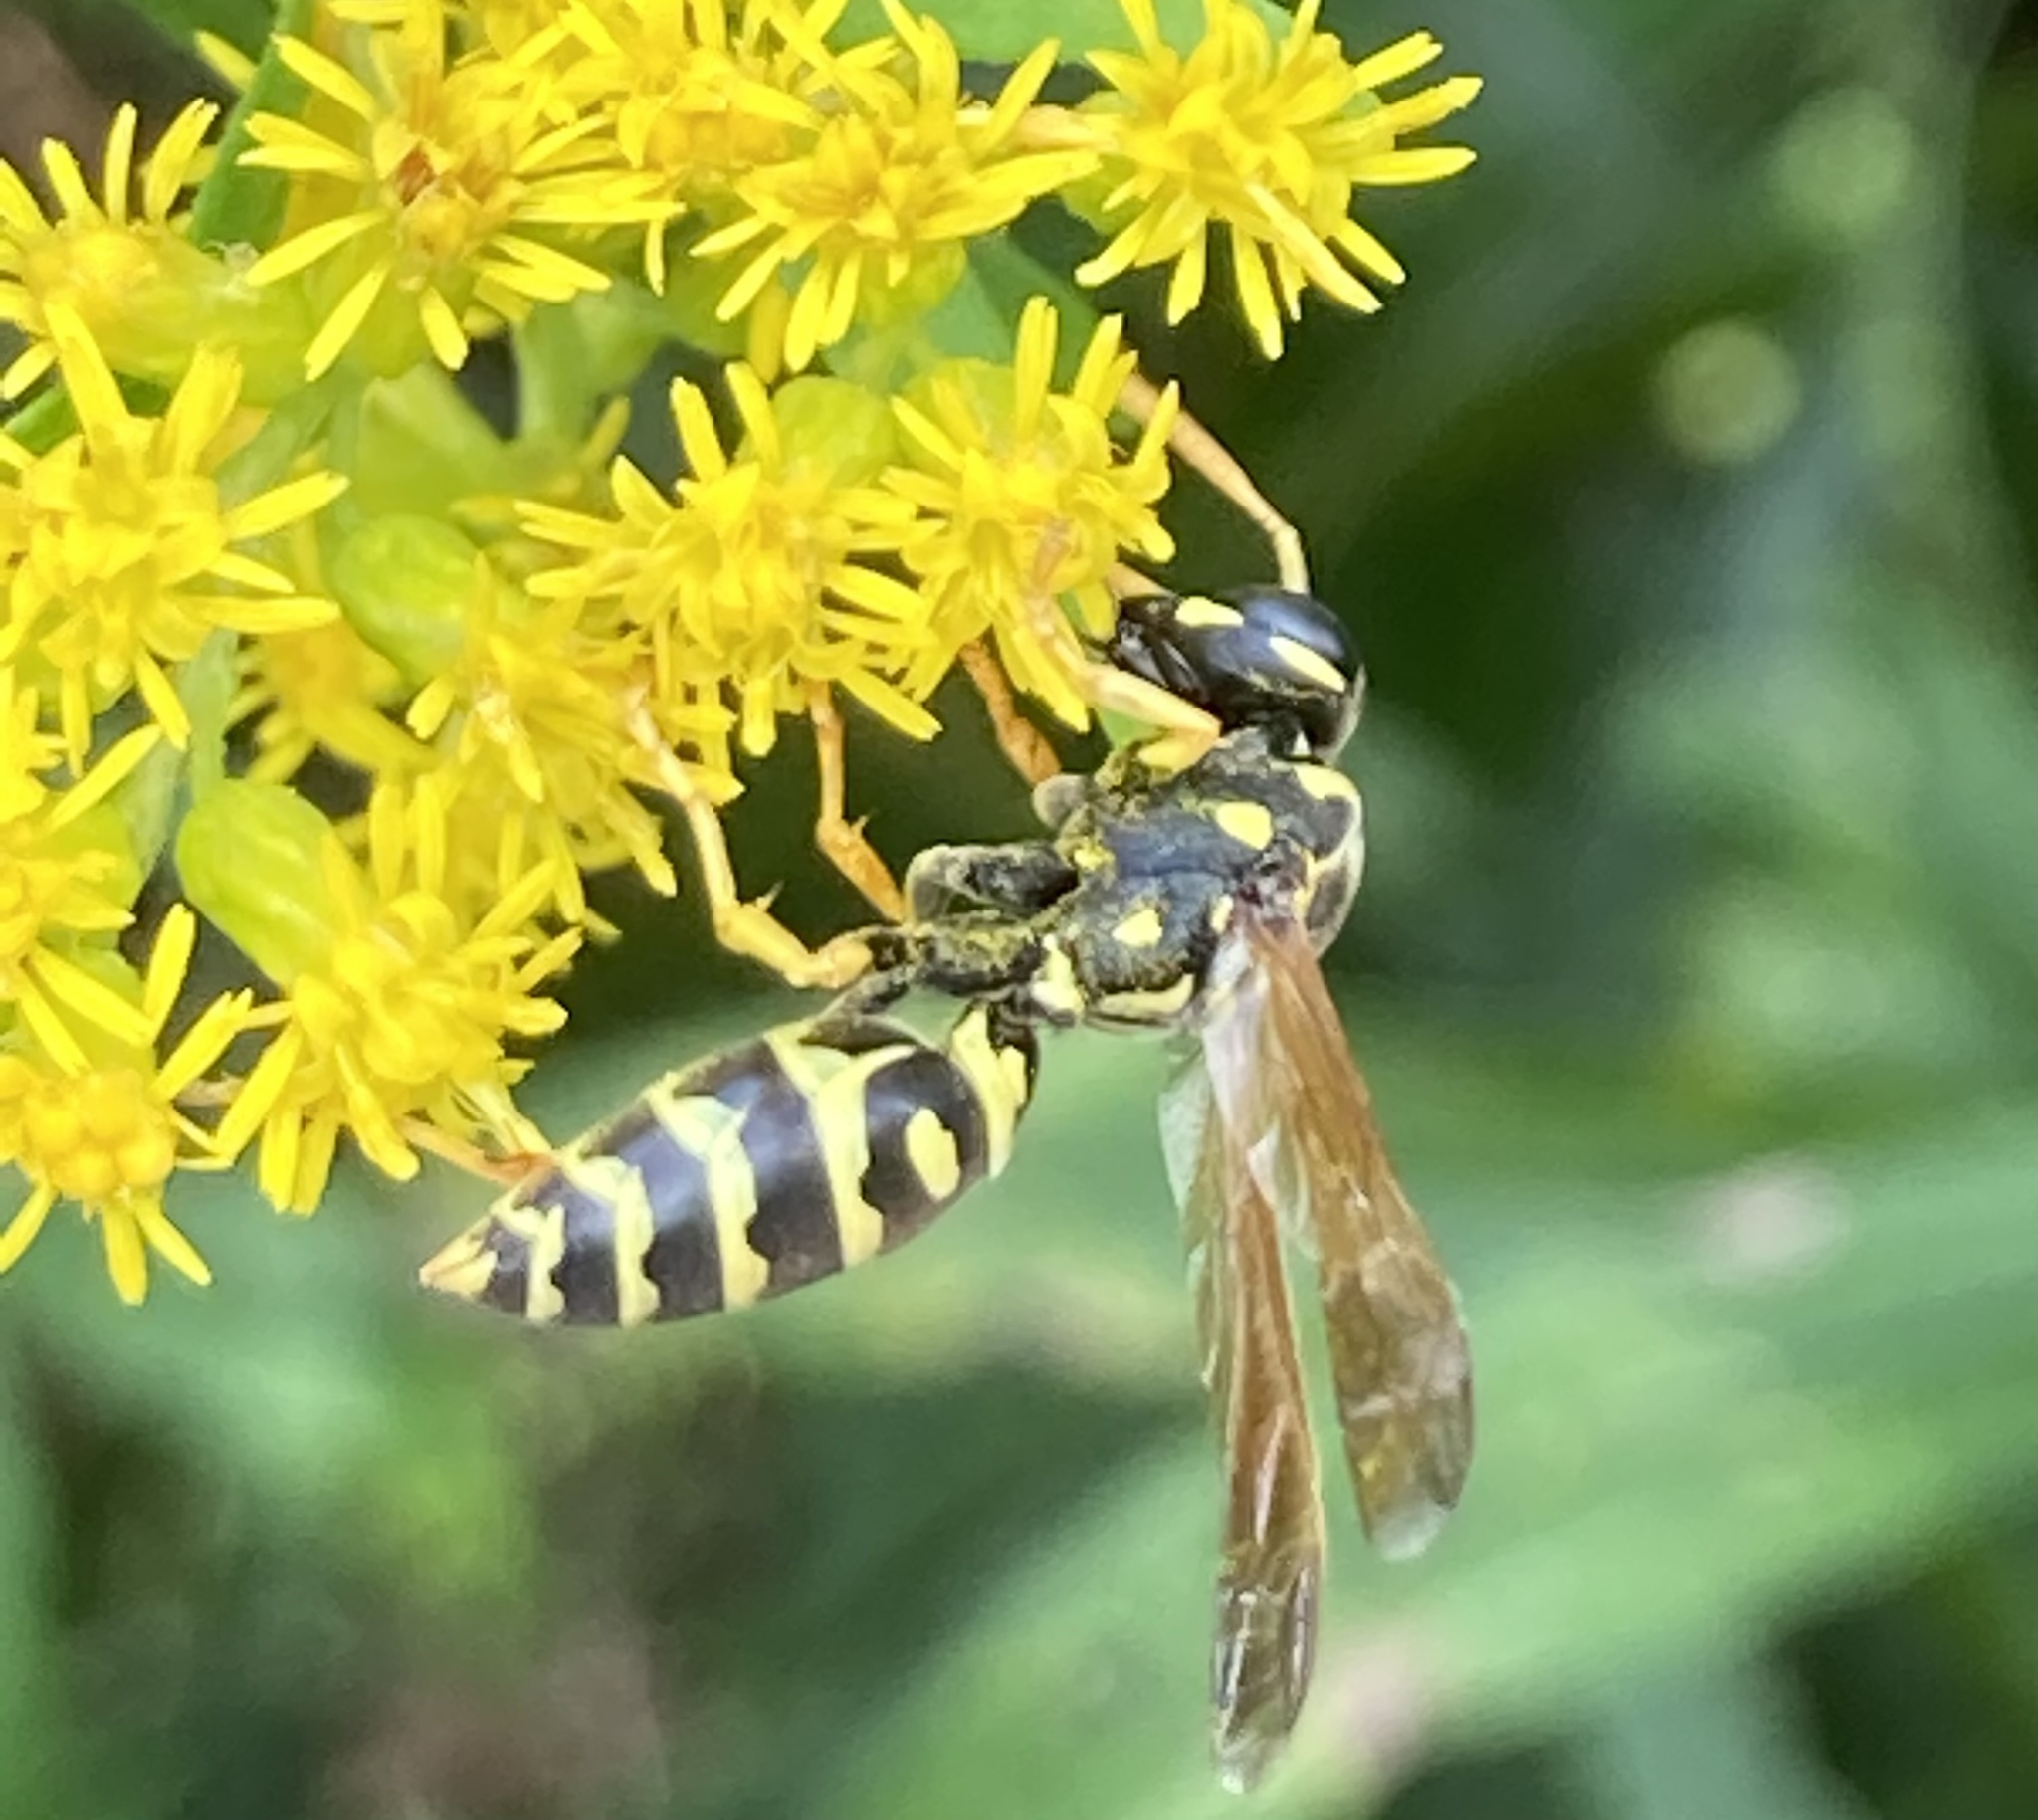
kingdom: Animalia
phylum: Arthropoda
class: Insecta
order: Hymenoptera
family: Eumenidae
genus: Polistes
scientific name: Polistes dominula
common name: Paper wasp
